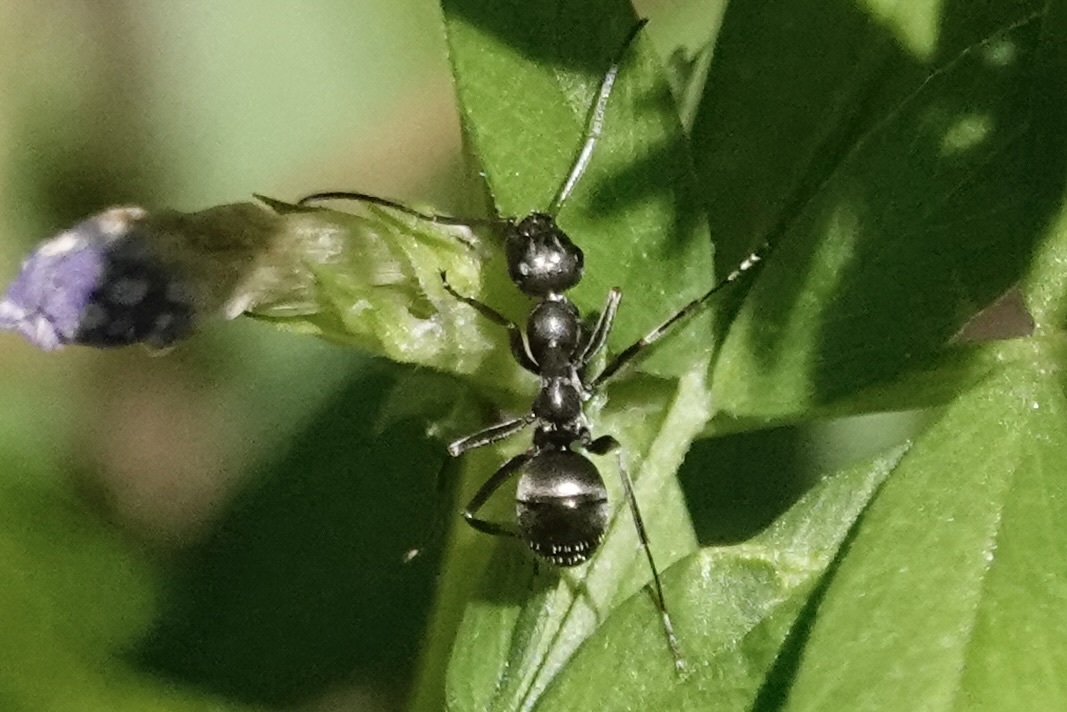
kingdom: Animalia
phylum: Arthropoda
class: Insecta
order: Hymenoptera
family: Formicidae
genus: Formica
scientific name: Formica subsericea
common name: Silky field ant
